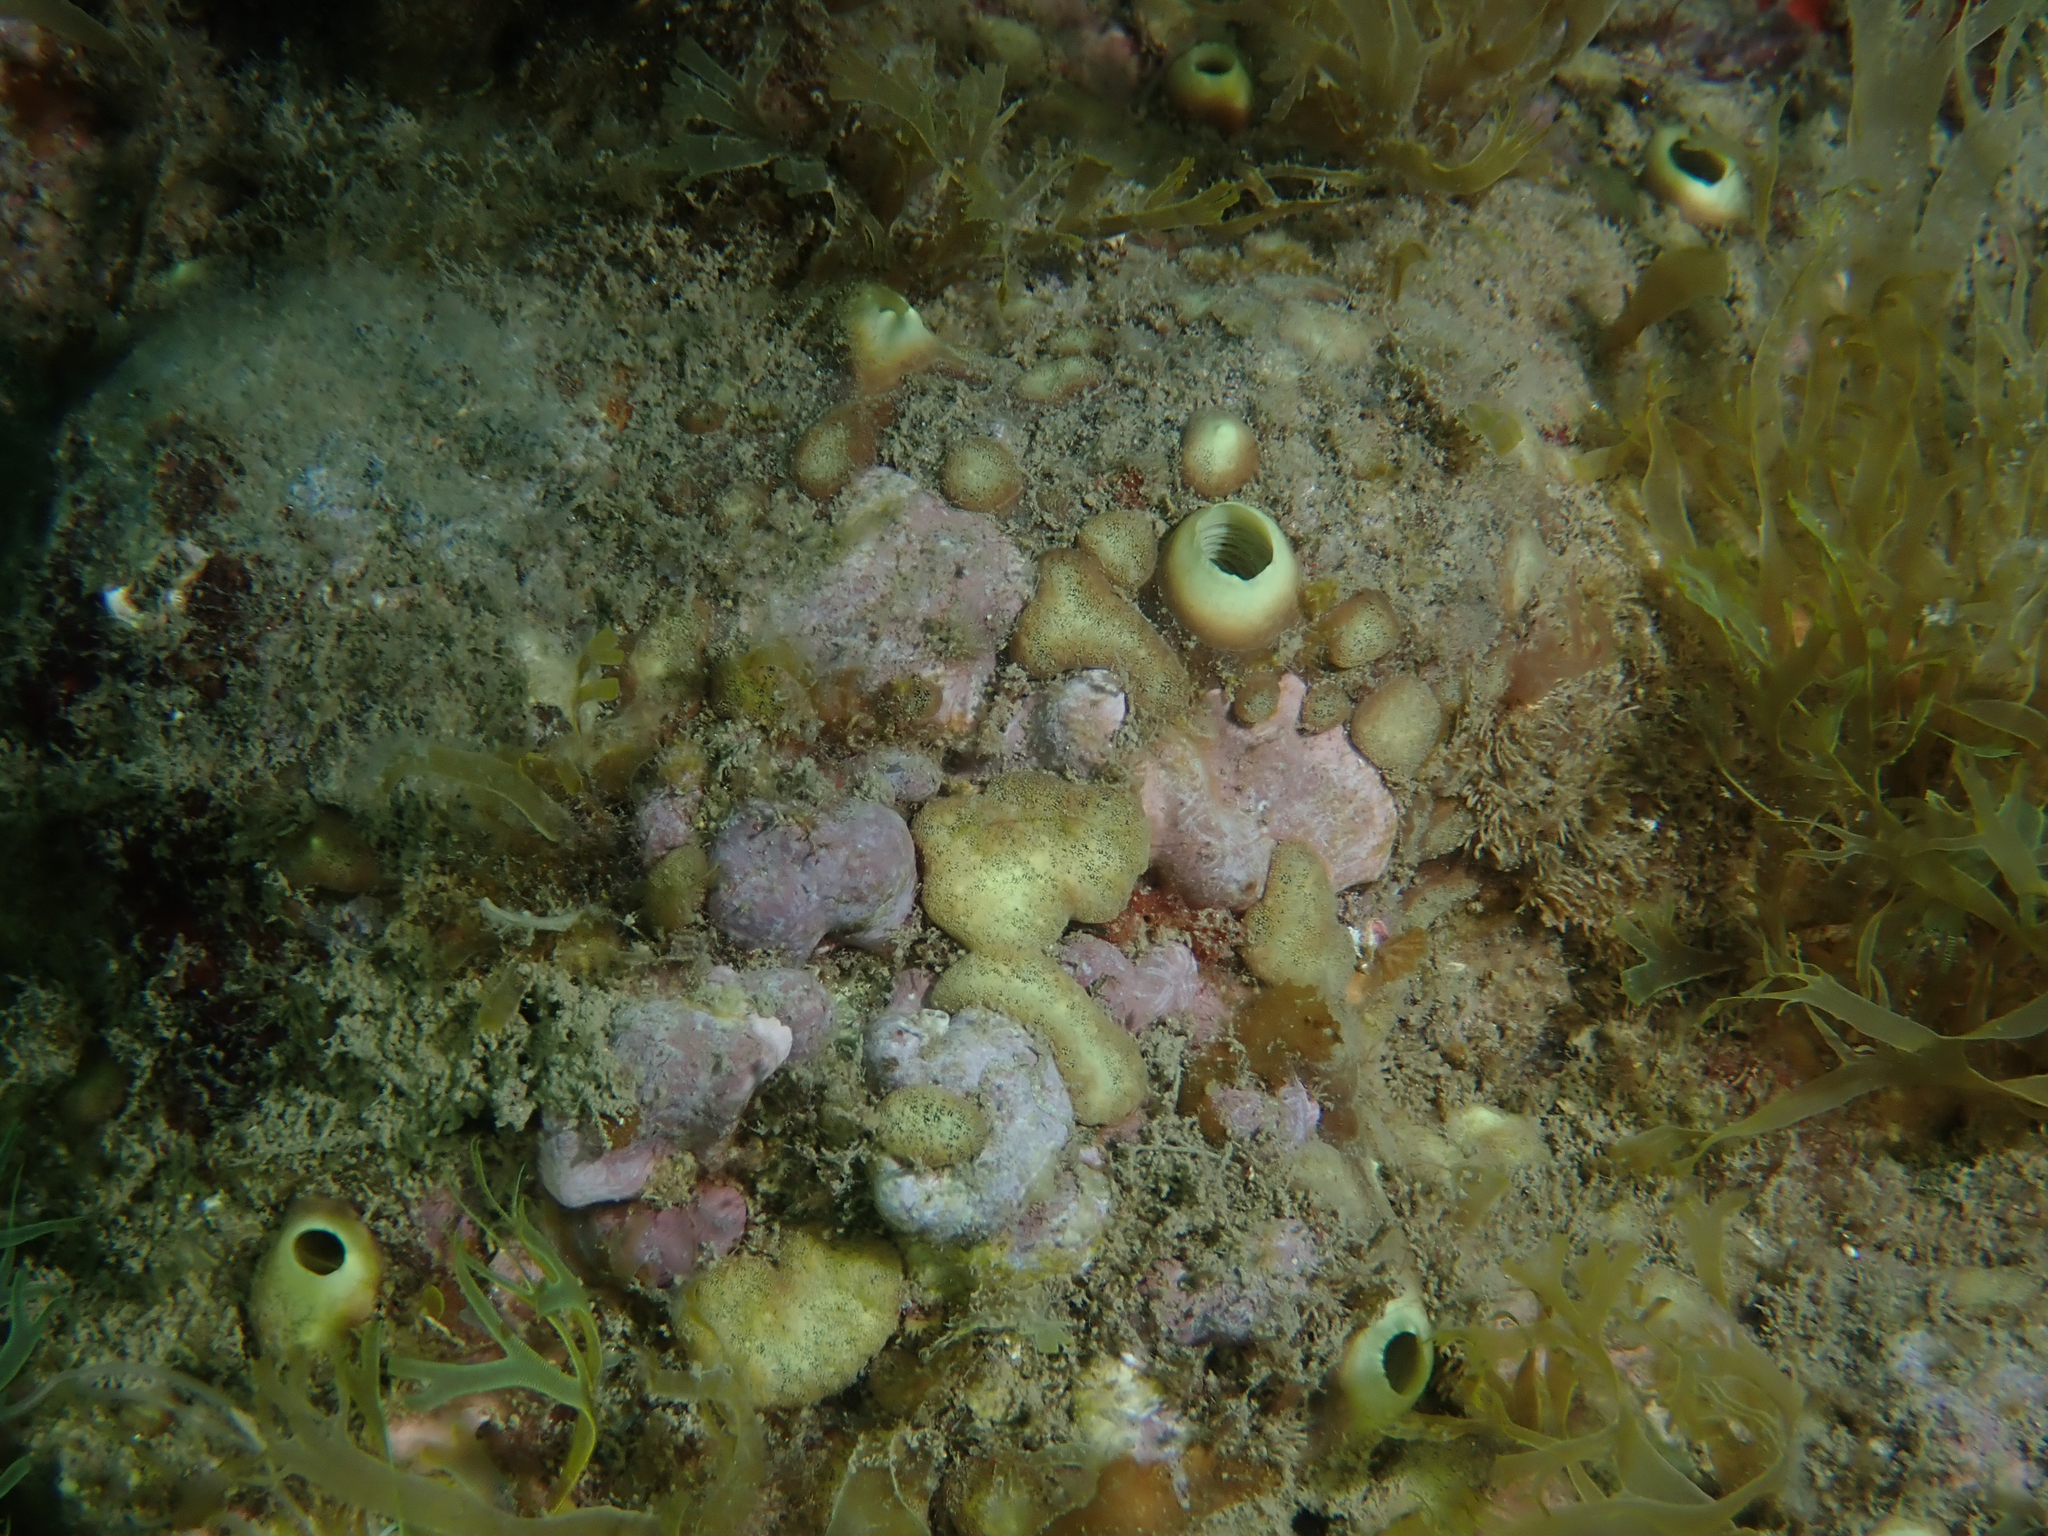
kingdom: Animalia
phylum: Porifera
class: Demospongiae
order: Clionaida
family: Clionaidae
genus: Cliona
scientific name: Cliona viridis
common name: Green boring sponge
